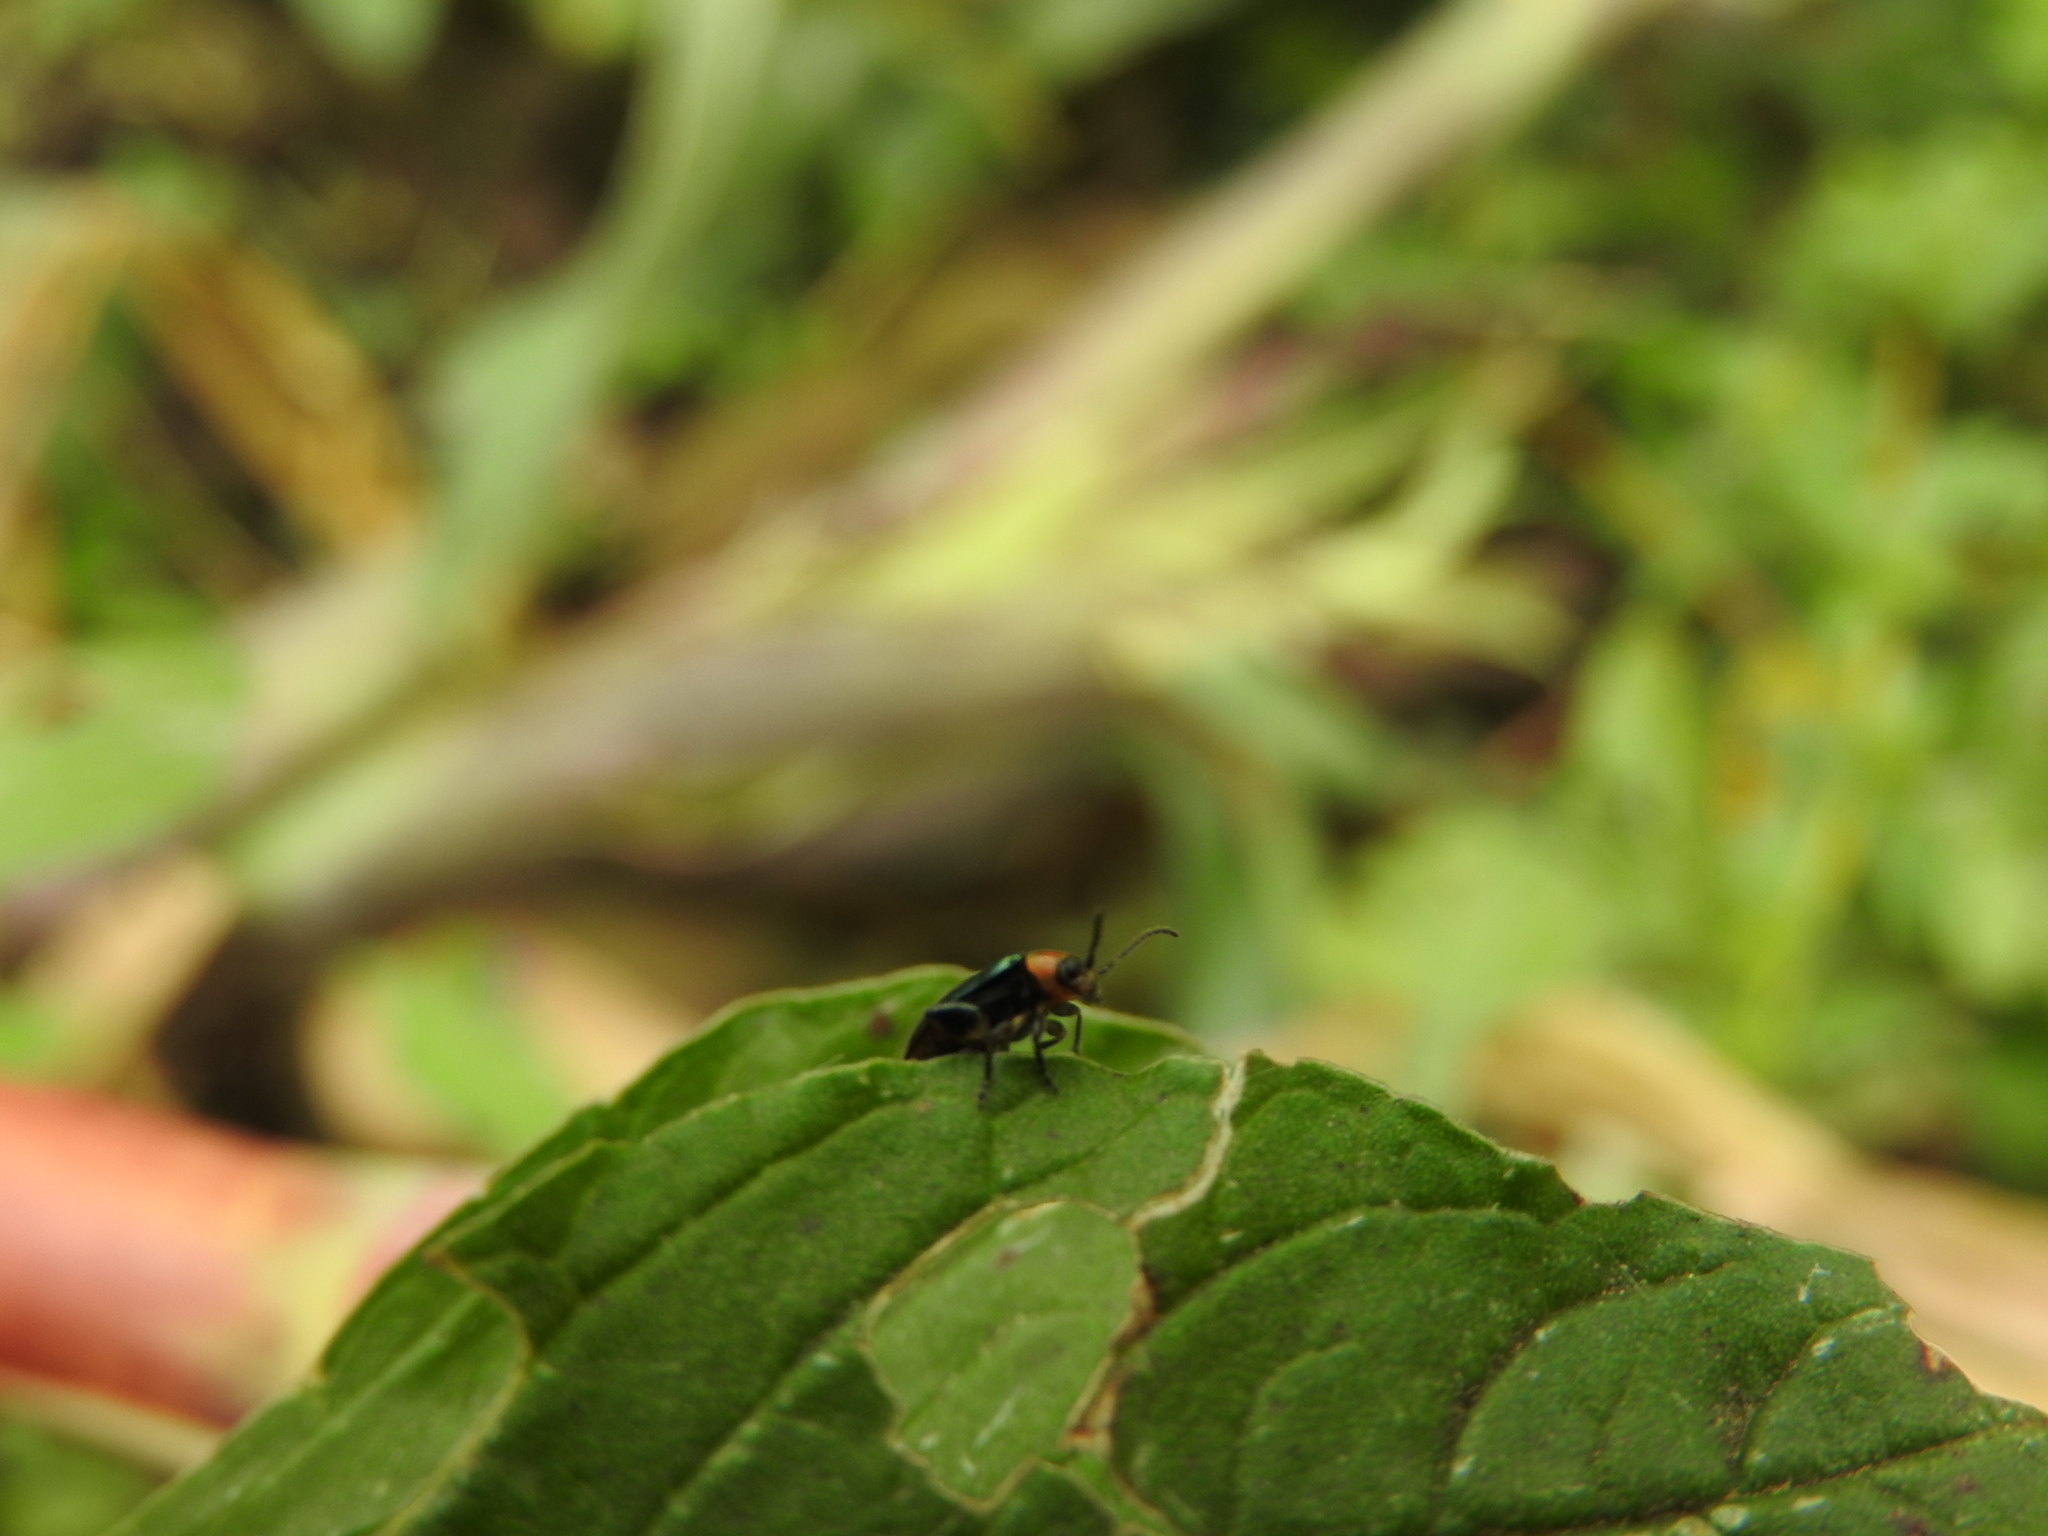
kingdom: Animalia
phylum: Arthropoda
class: Insecta
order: Coleoptera
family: Chrysomelidae
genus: Disonycha
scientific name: Disonycha politula
